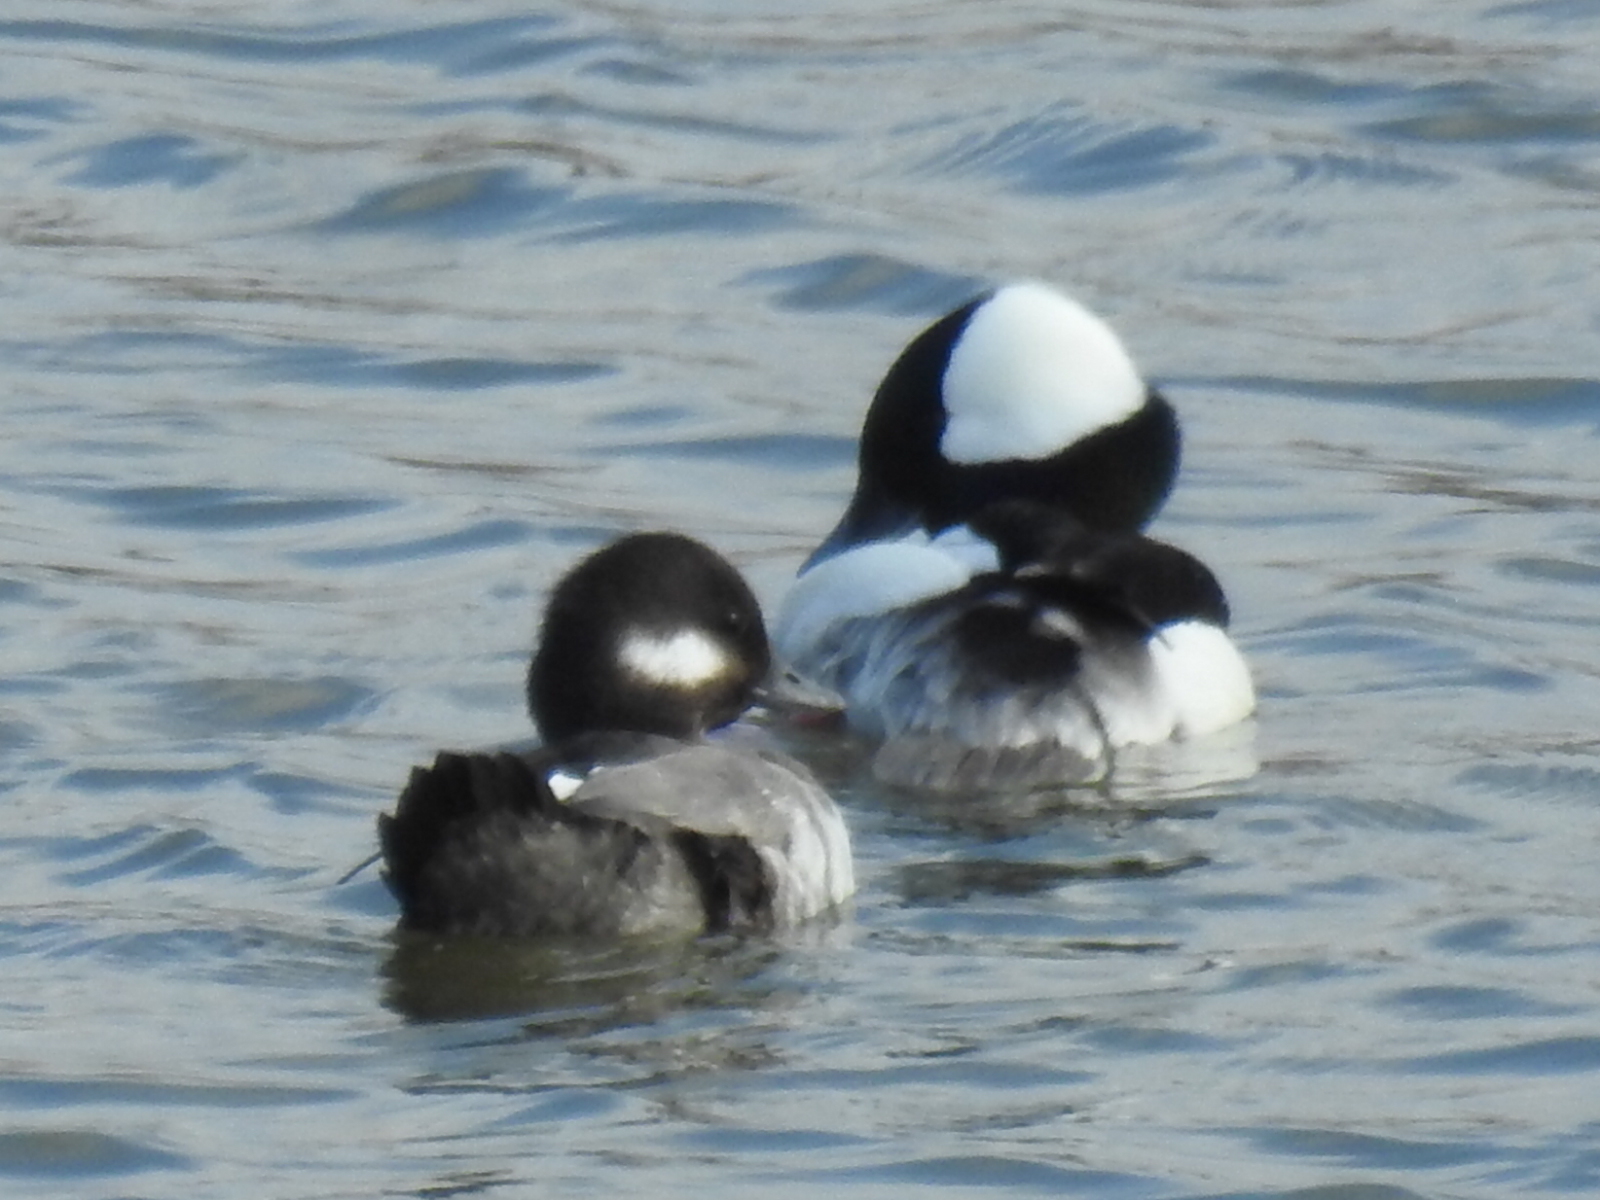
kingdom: Animalia
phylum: Chordata
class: Aves
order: Anseriformes
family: Anatidae
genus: Bucephala
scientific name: Bucephala albeola
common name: Bufflehead
